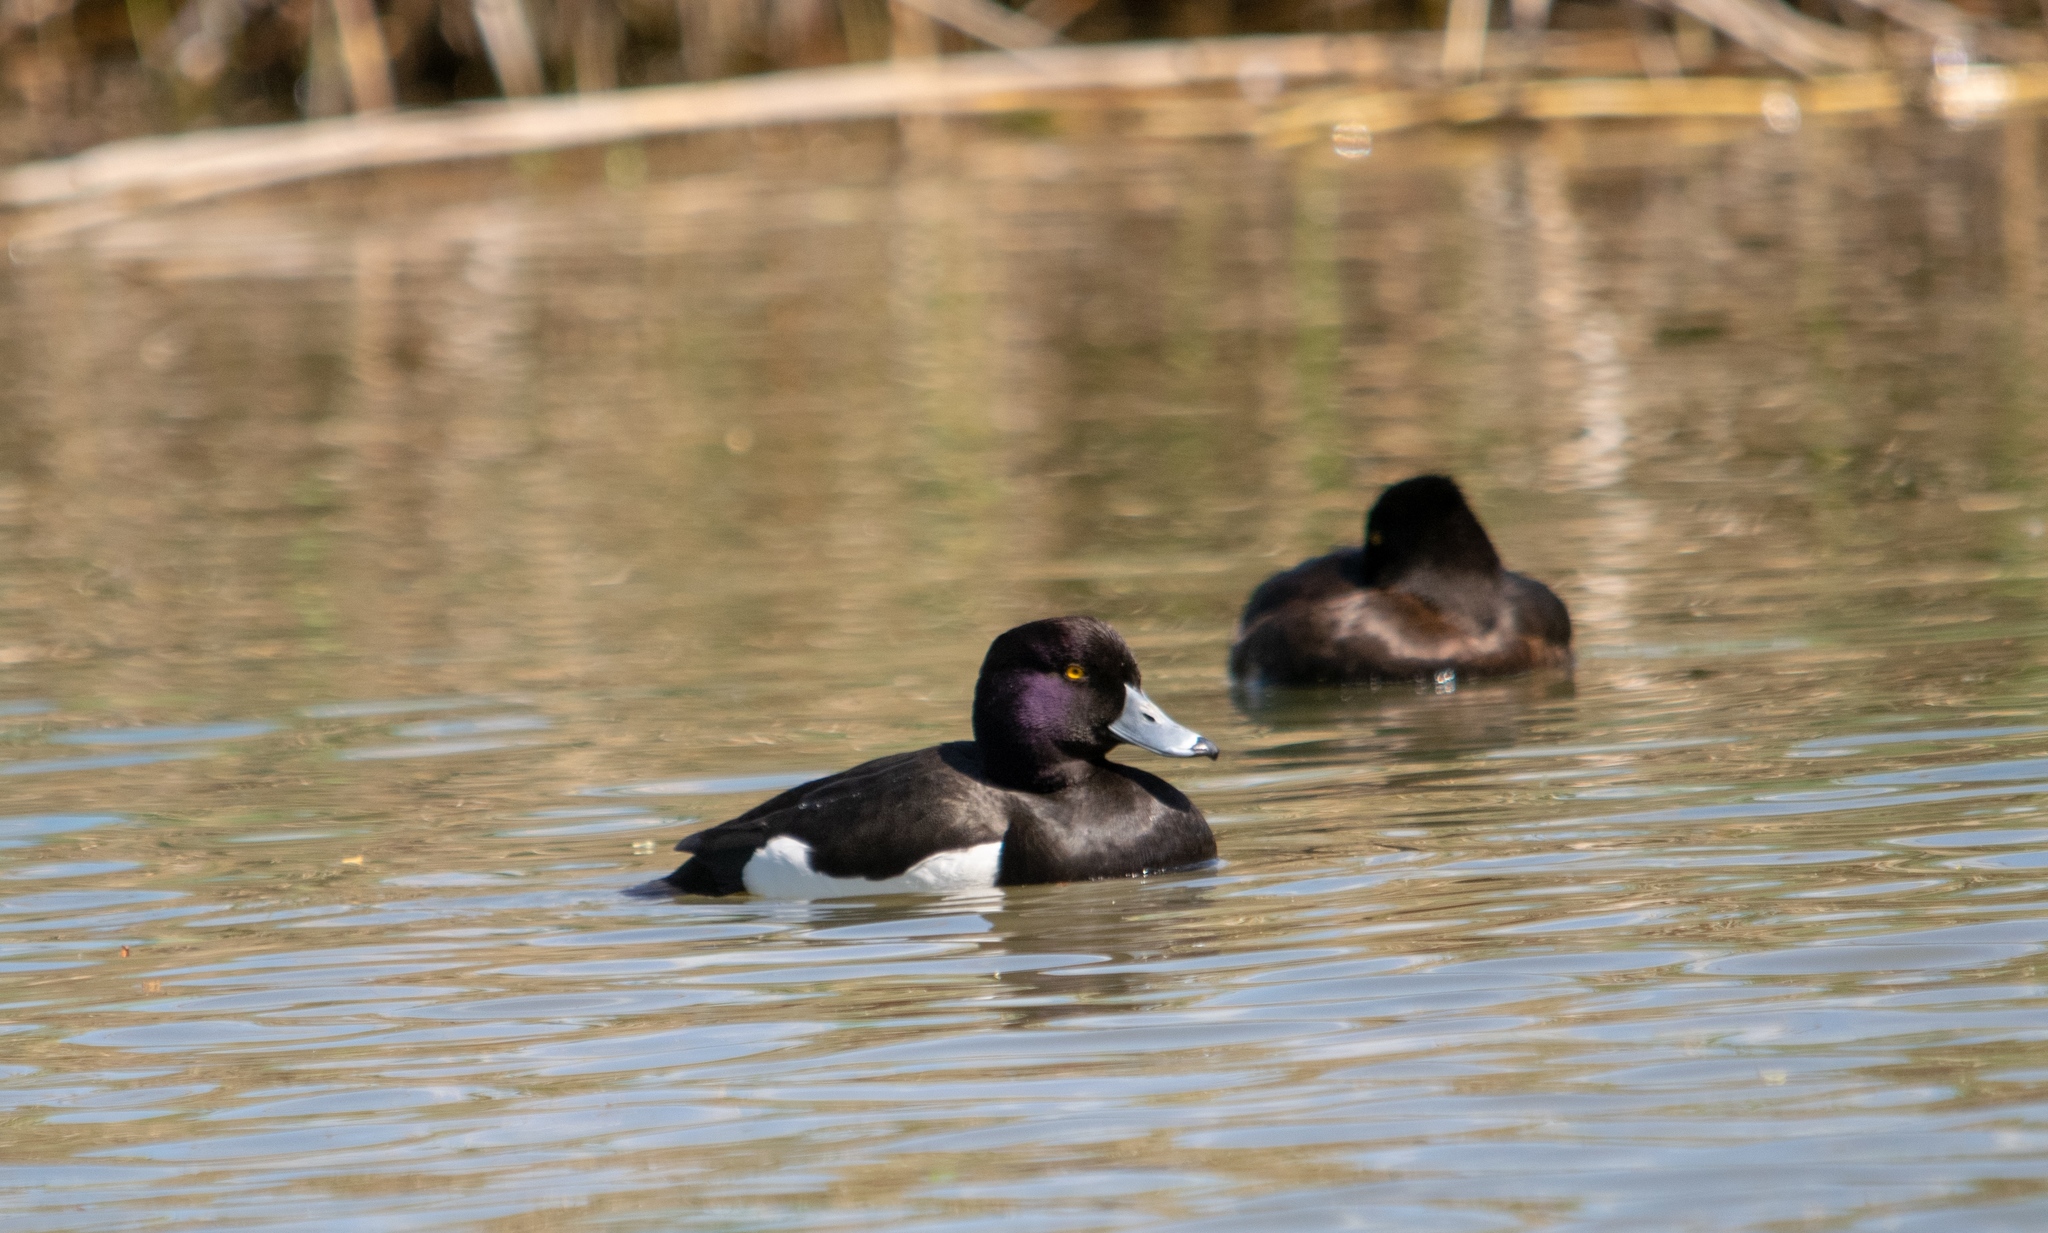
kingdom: Animalia
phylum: Chordata
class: Aves
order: Anseriformes
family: Anatidae
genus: Aythya
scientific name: Aythya fuligula
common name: Tufted duck
